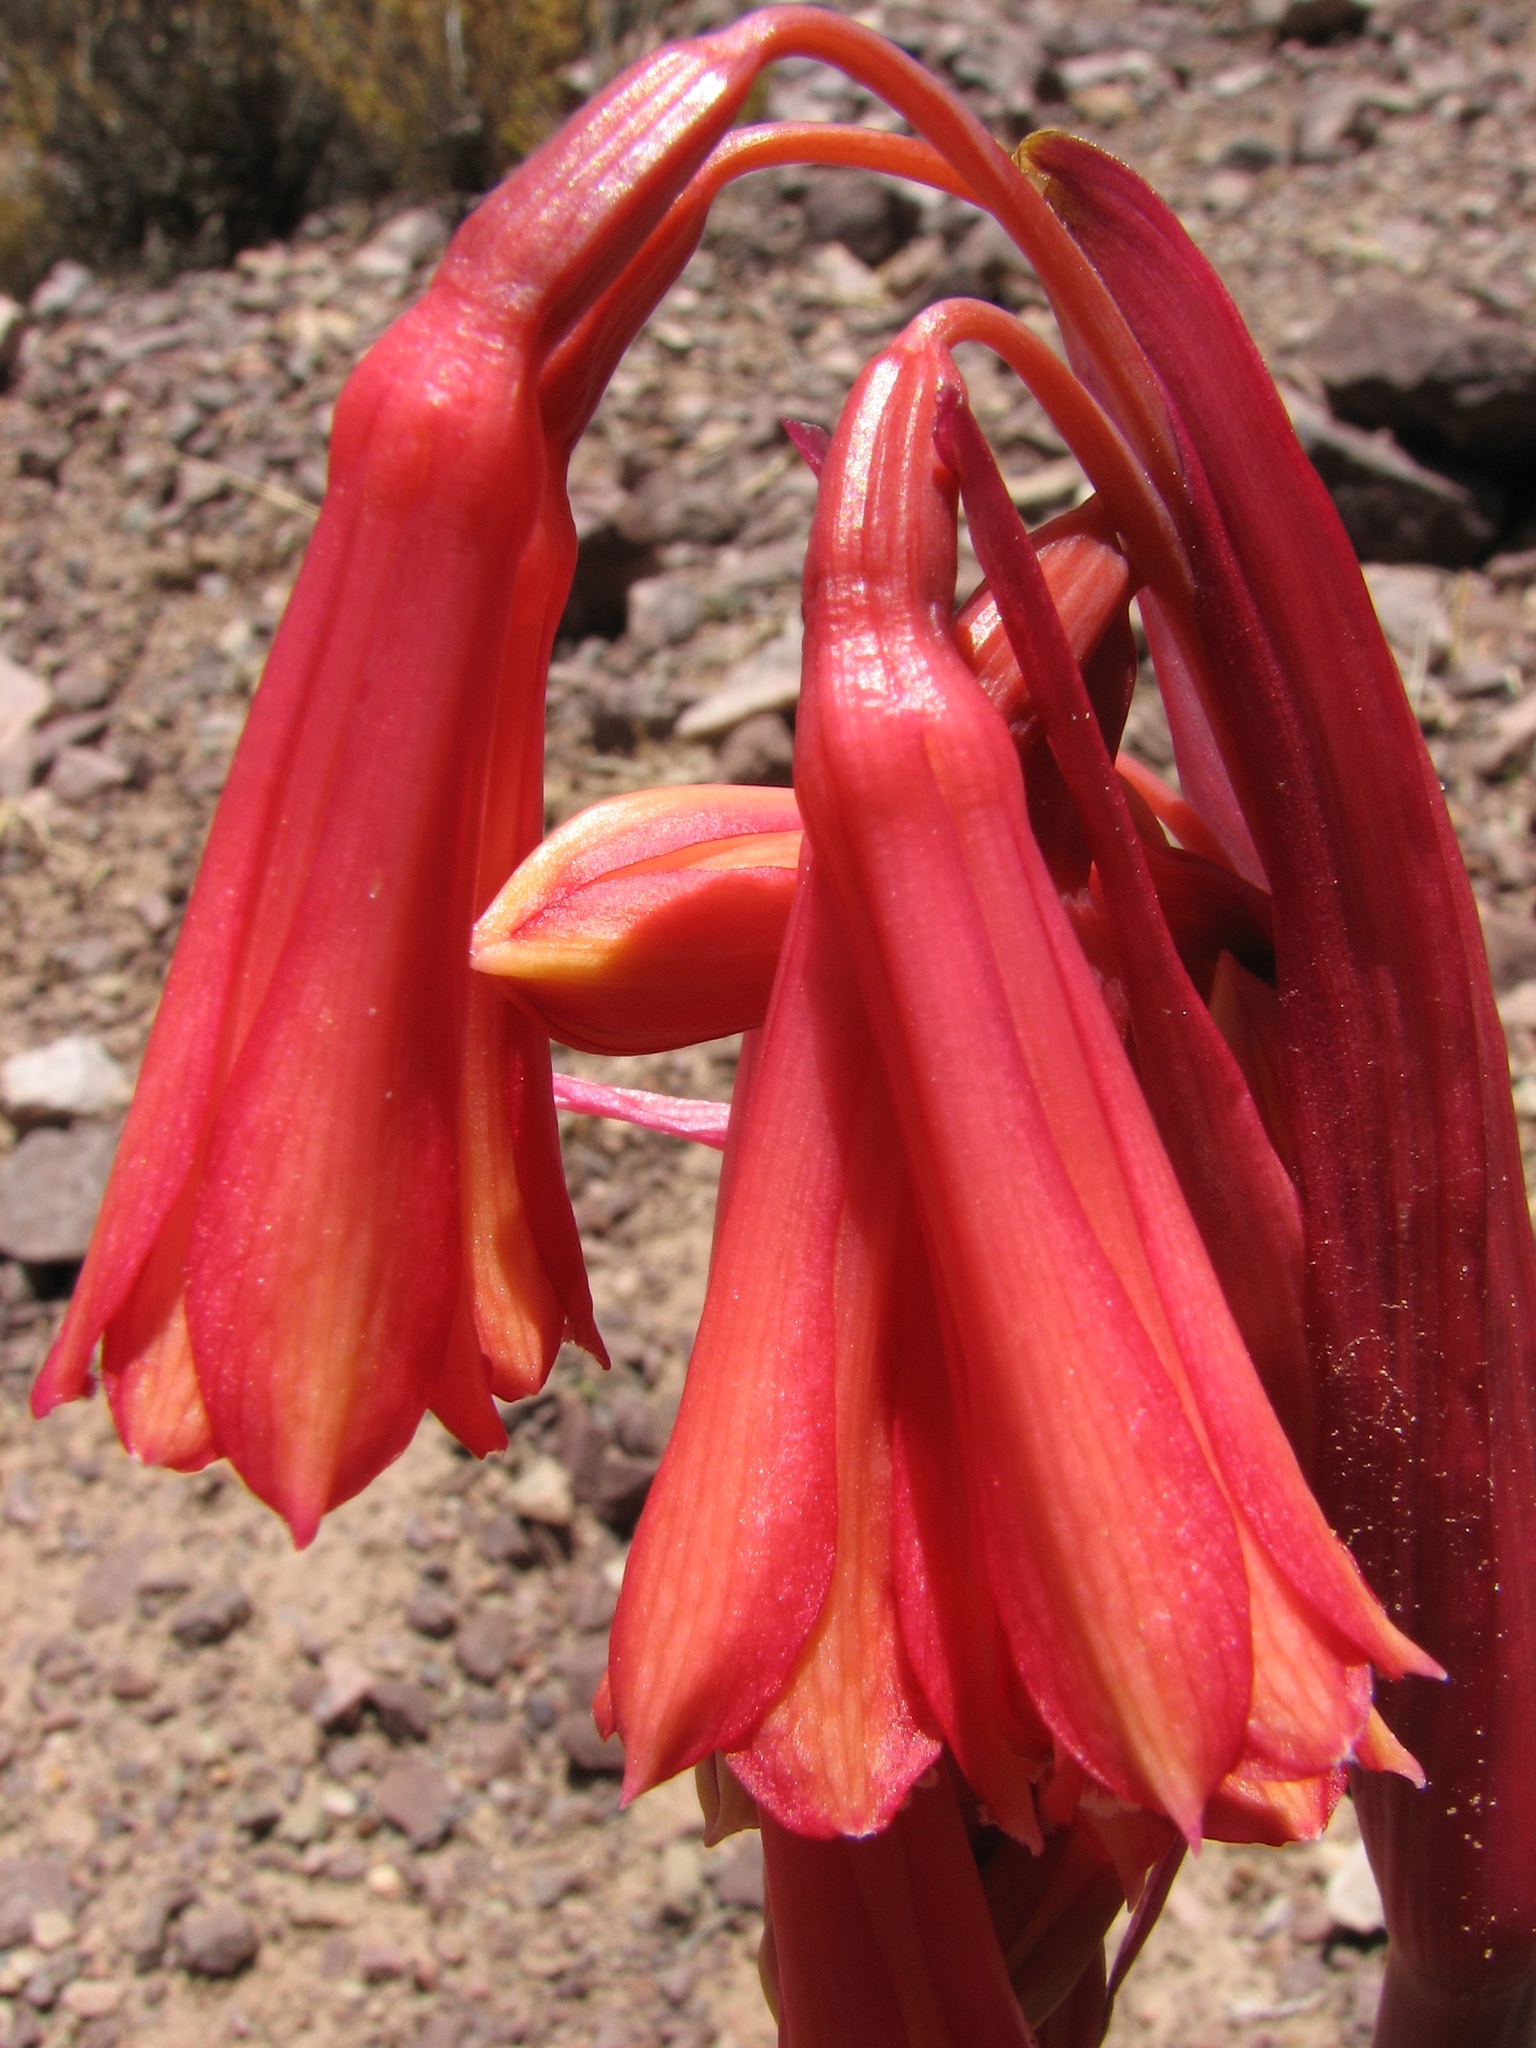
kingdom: Plantae
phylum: Tracheophyta
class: Liliopsida
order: Asparagales
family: Amaryllidaceae
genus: Zephyranthes
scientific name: Zephyranthes graciliflora
